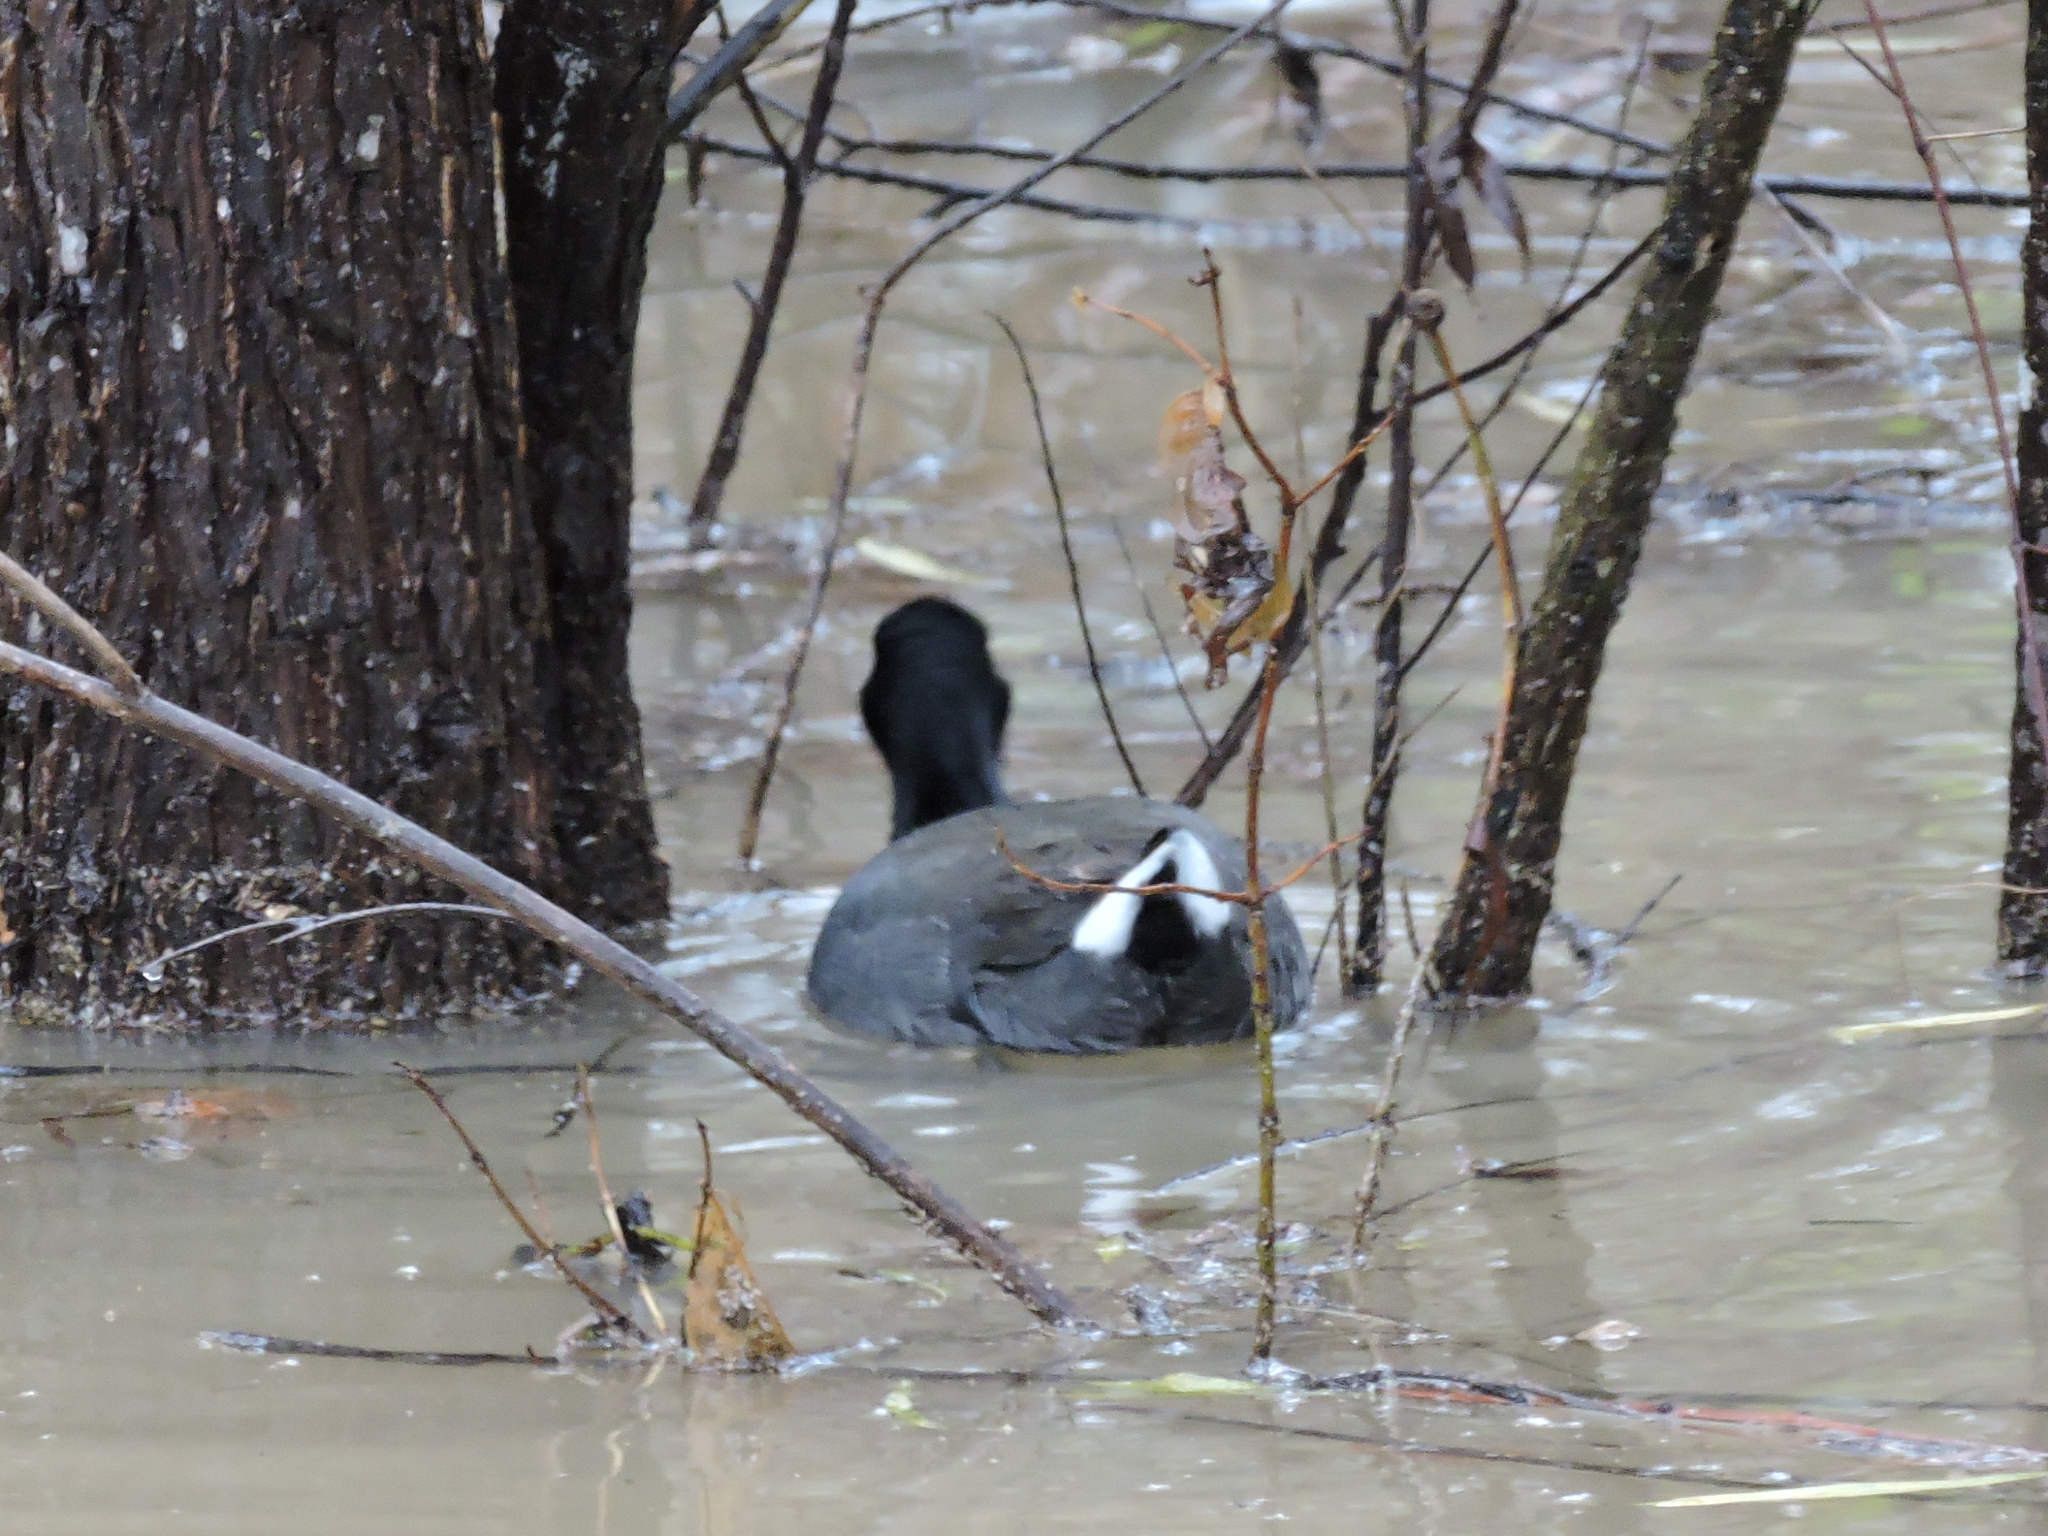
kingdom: Animalia
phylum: Chordata
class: Aves
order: Gruiformes
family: Rallidae
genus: Fulica
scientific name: Fulica americana
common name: American coot
